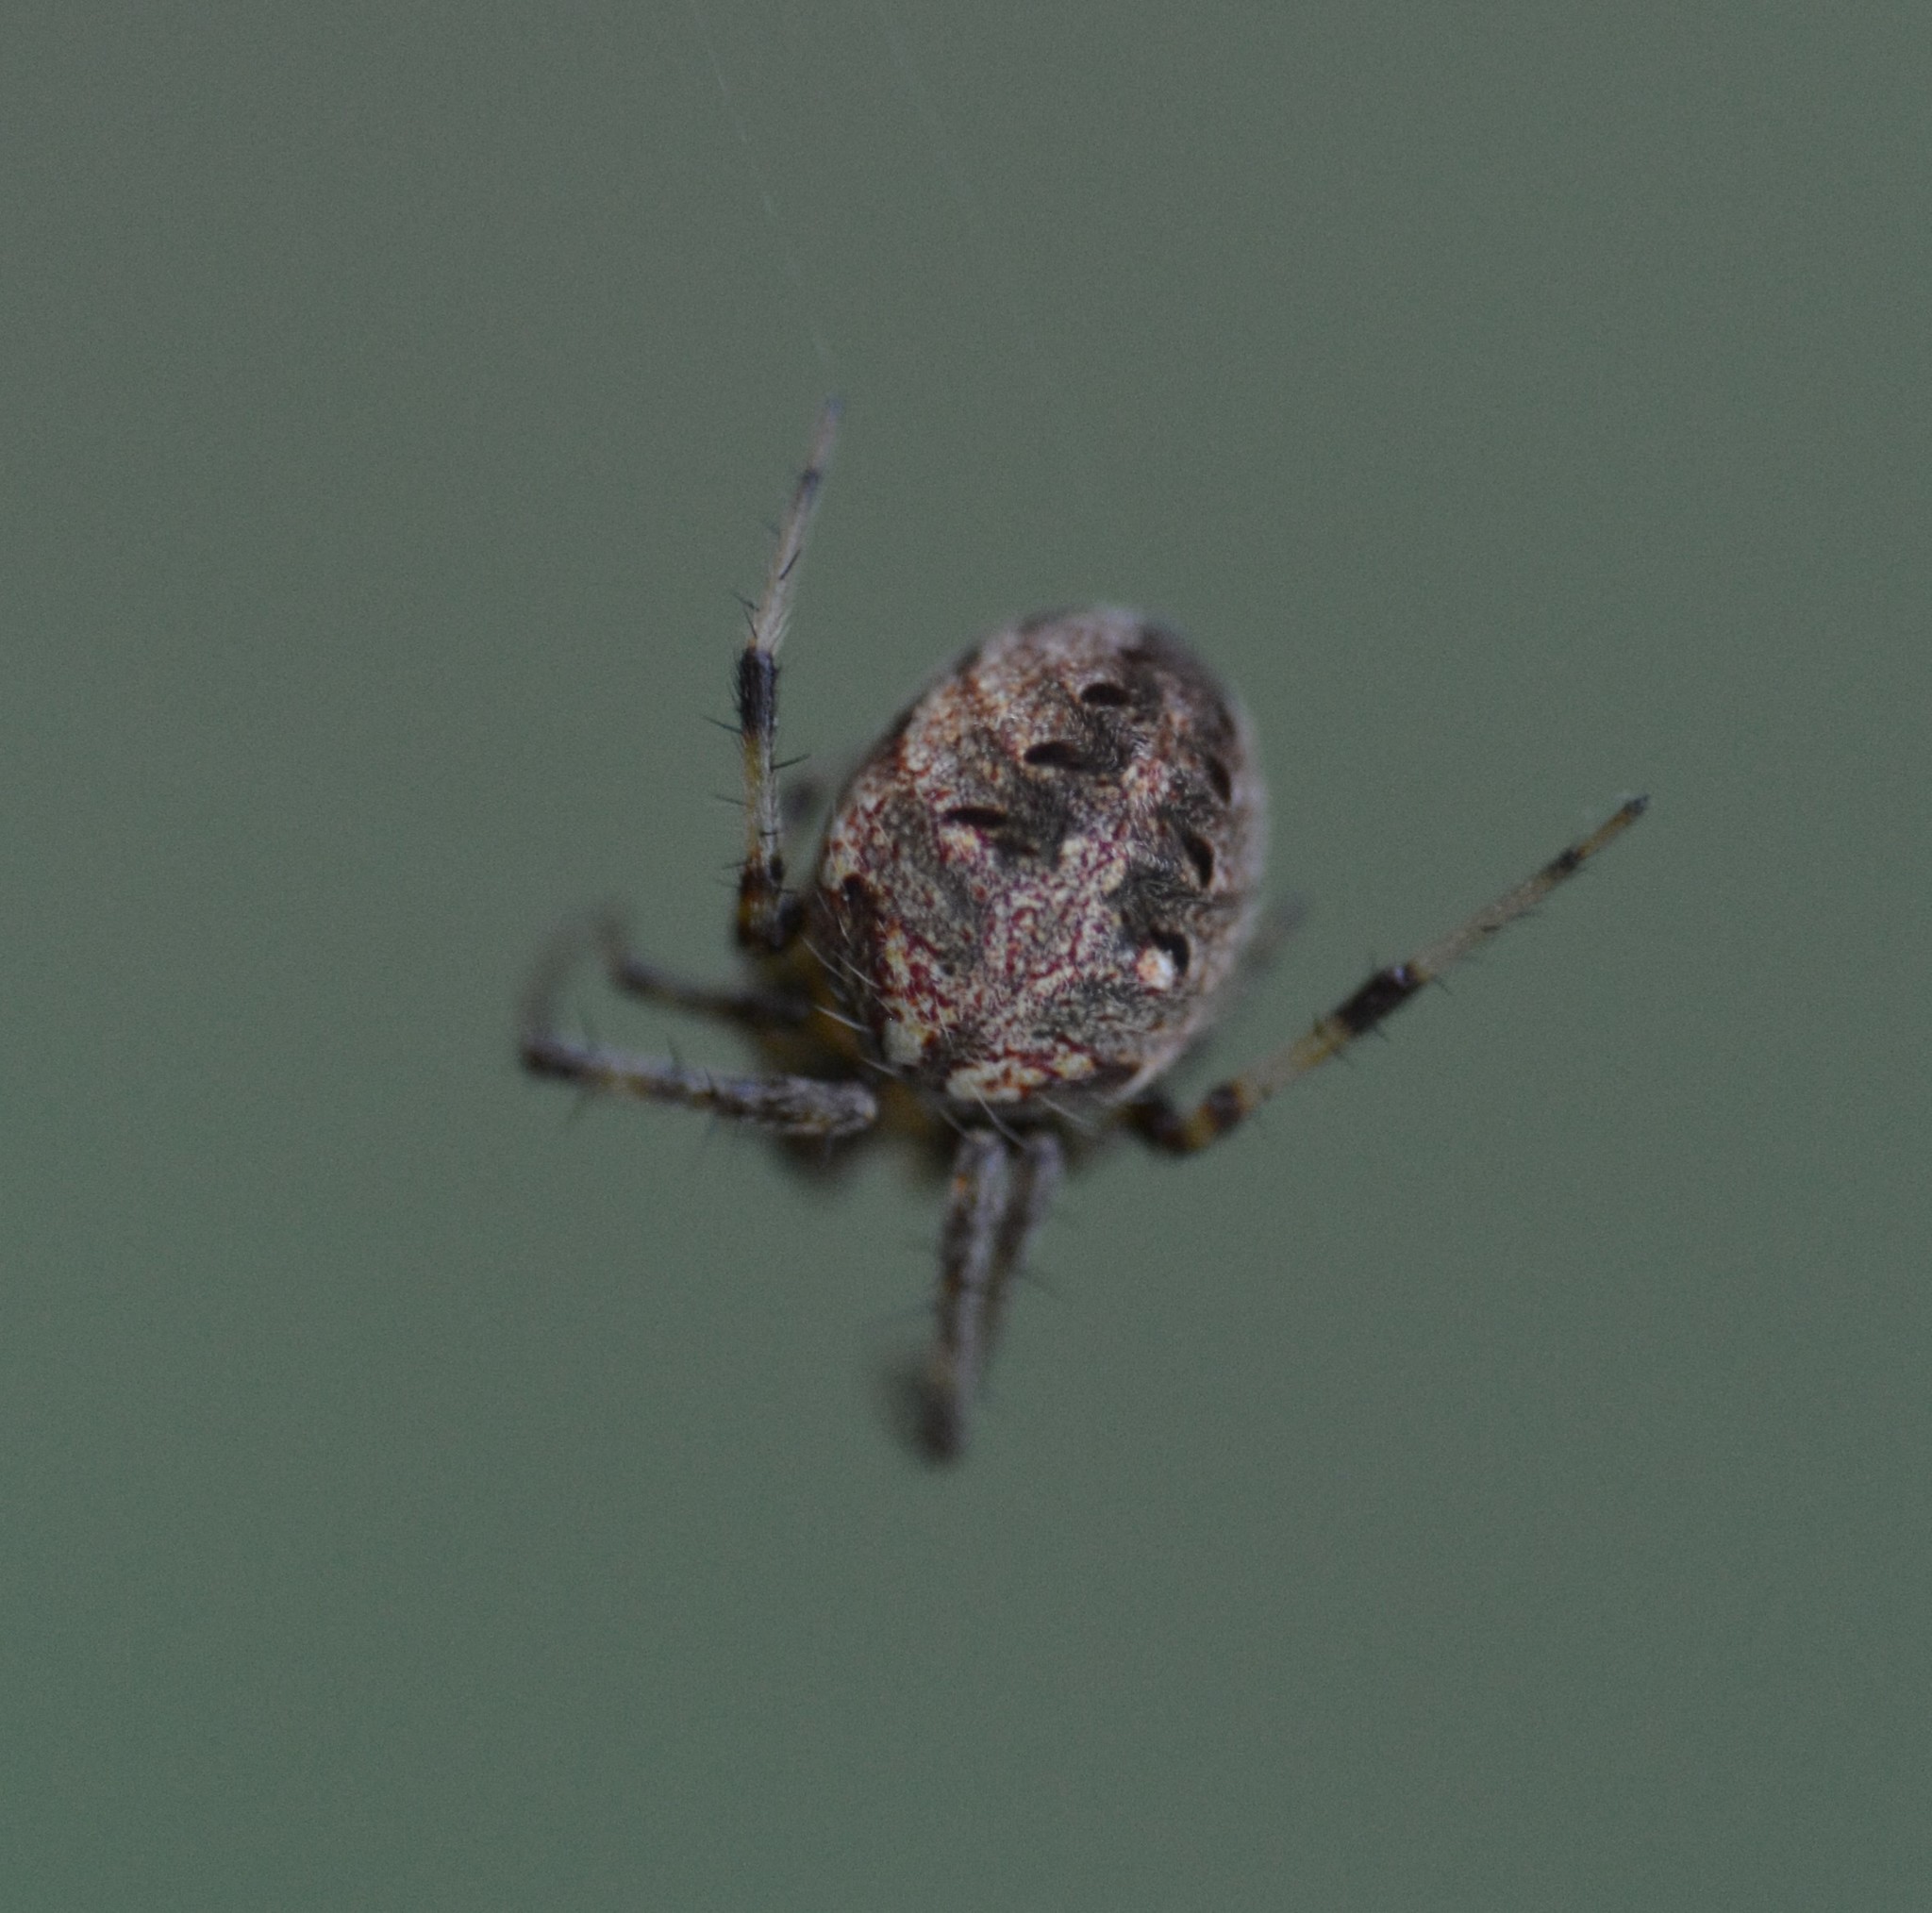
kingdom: Animalia
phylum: Arthropoda
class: Arachnida
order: Araneae
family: Araneidae
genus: Neoscona
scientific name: Neoscona arabesca
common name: Orb weavers
